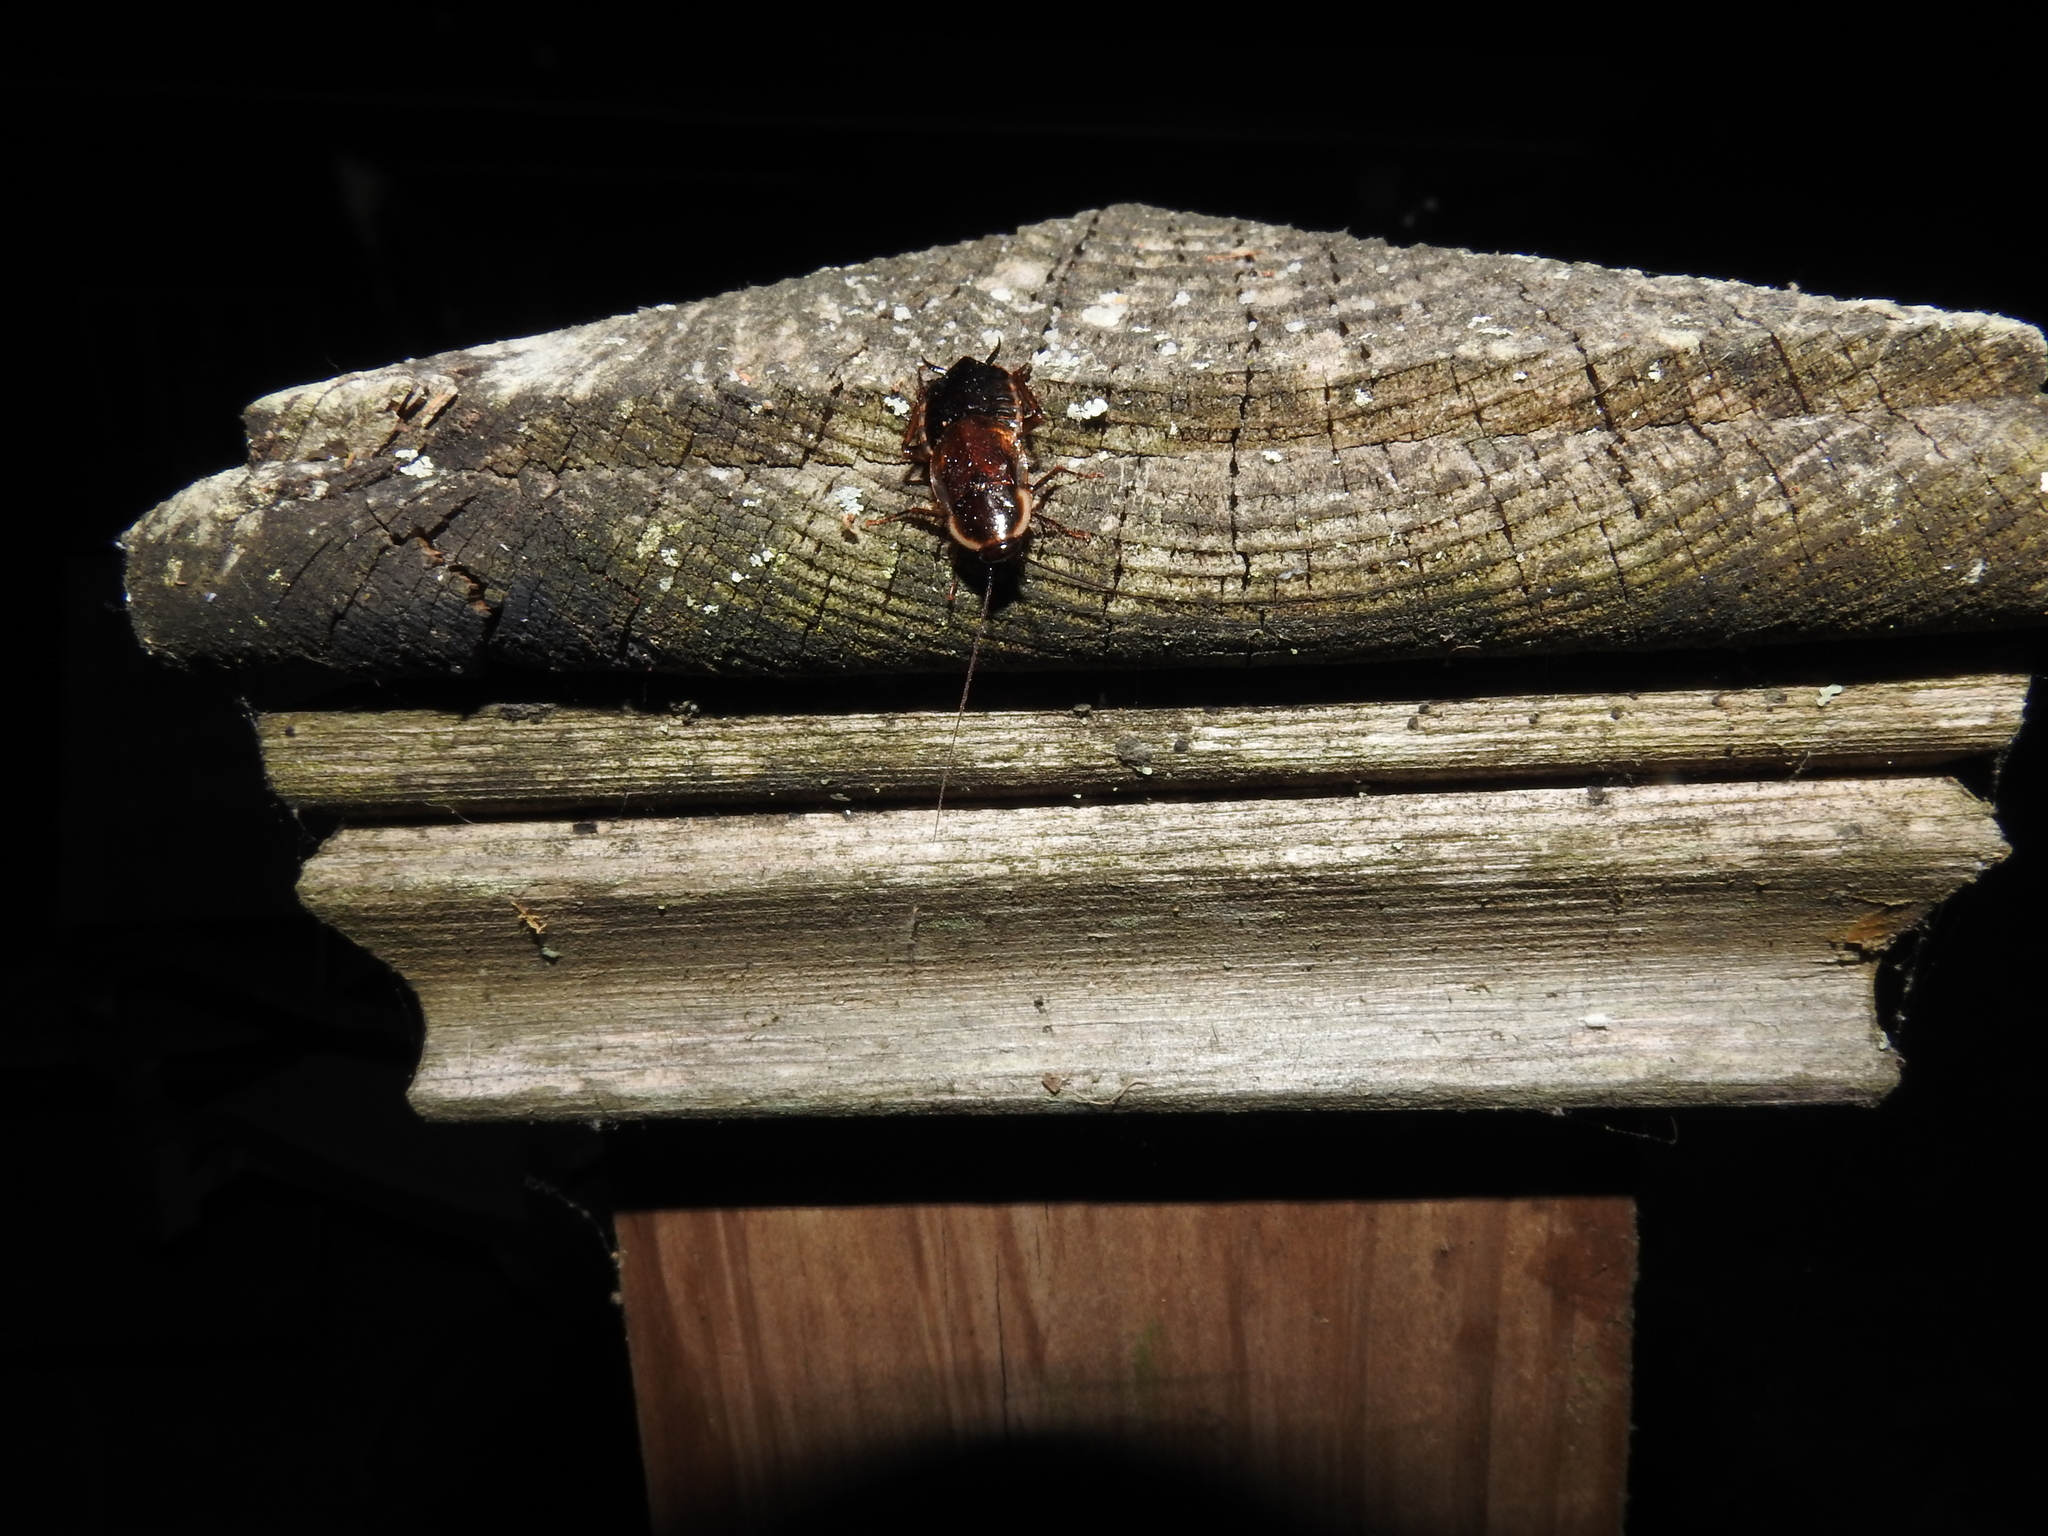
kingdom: Animalia
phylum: Arthropoda
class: Insecta
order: Blattodea
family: Ectobiidae
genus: Parcoblatta
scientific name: Parcoblatta pennsylvanica
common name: Pennsylvanian wood cockroach
